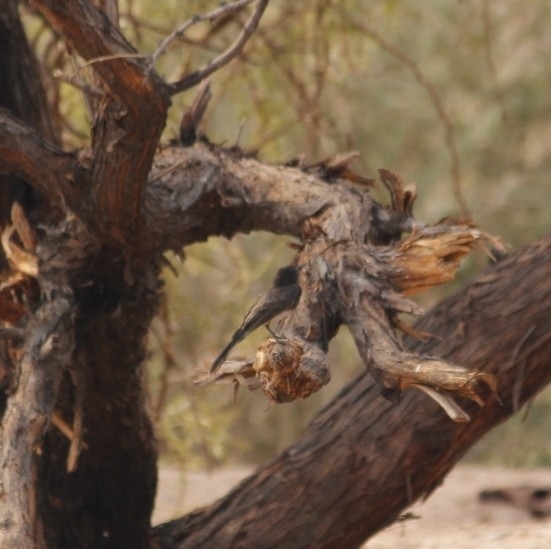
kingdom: Animalia
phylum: Chordata
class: Aves
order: Passeriformes
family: Tyrannidae
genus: Sayornis
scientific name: Sayornis nigricans
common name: Black phoebe
